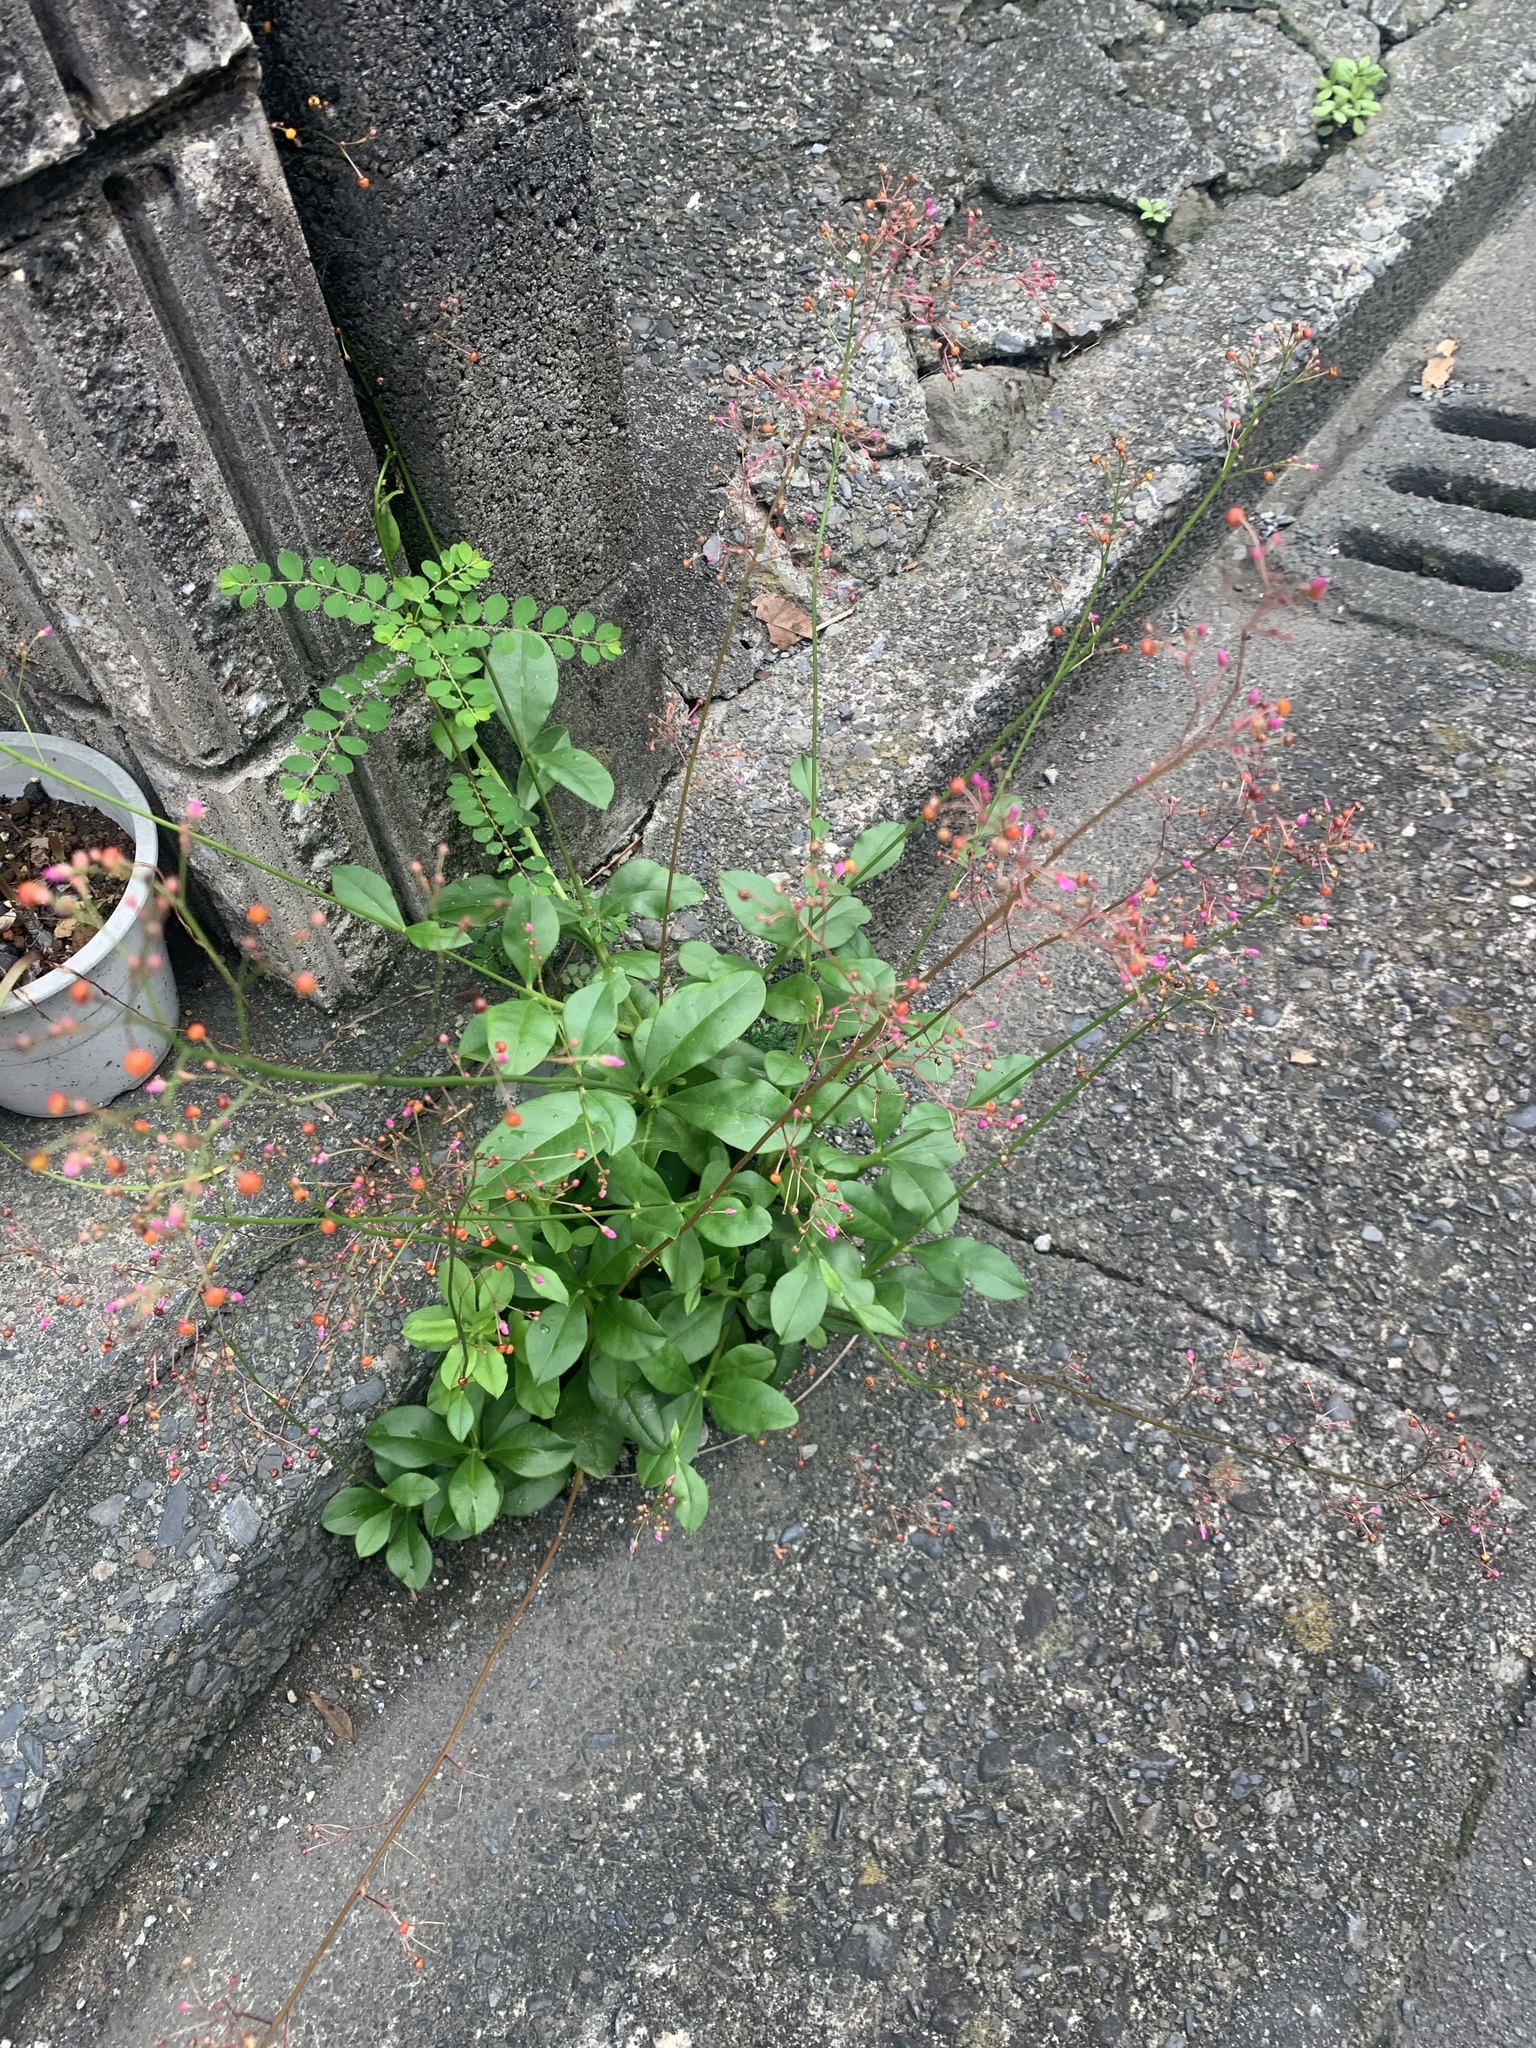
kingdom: Plantae
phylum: Tracheophyta
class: Magnoliopsida
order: Caryophyllales
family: Talinaceae
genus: Talinum
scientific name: Talinum paniculatum
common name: Jewels of opar
